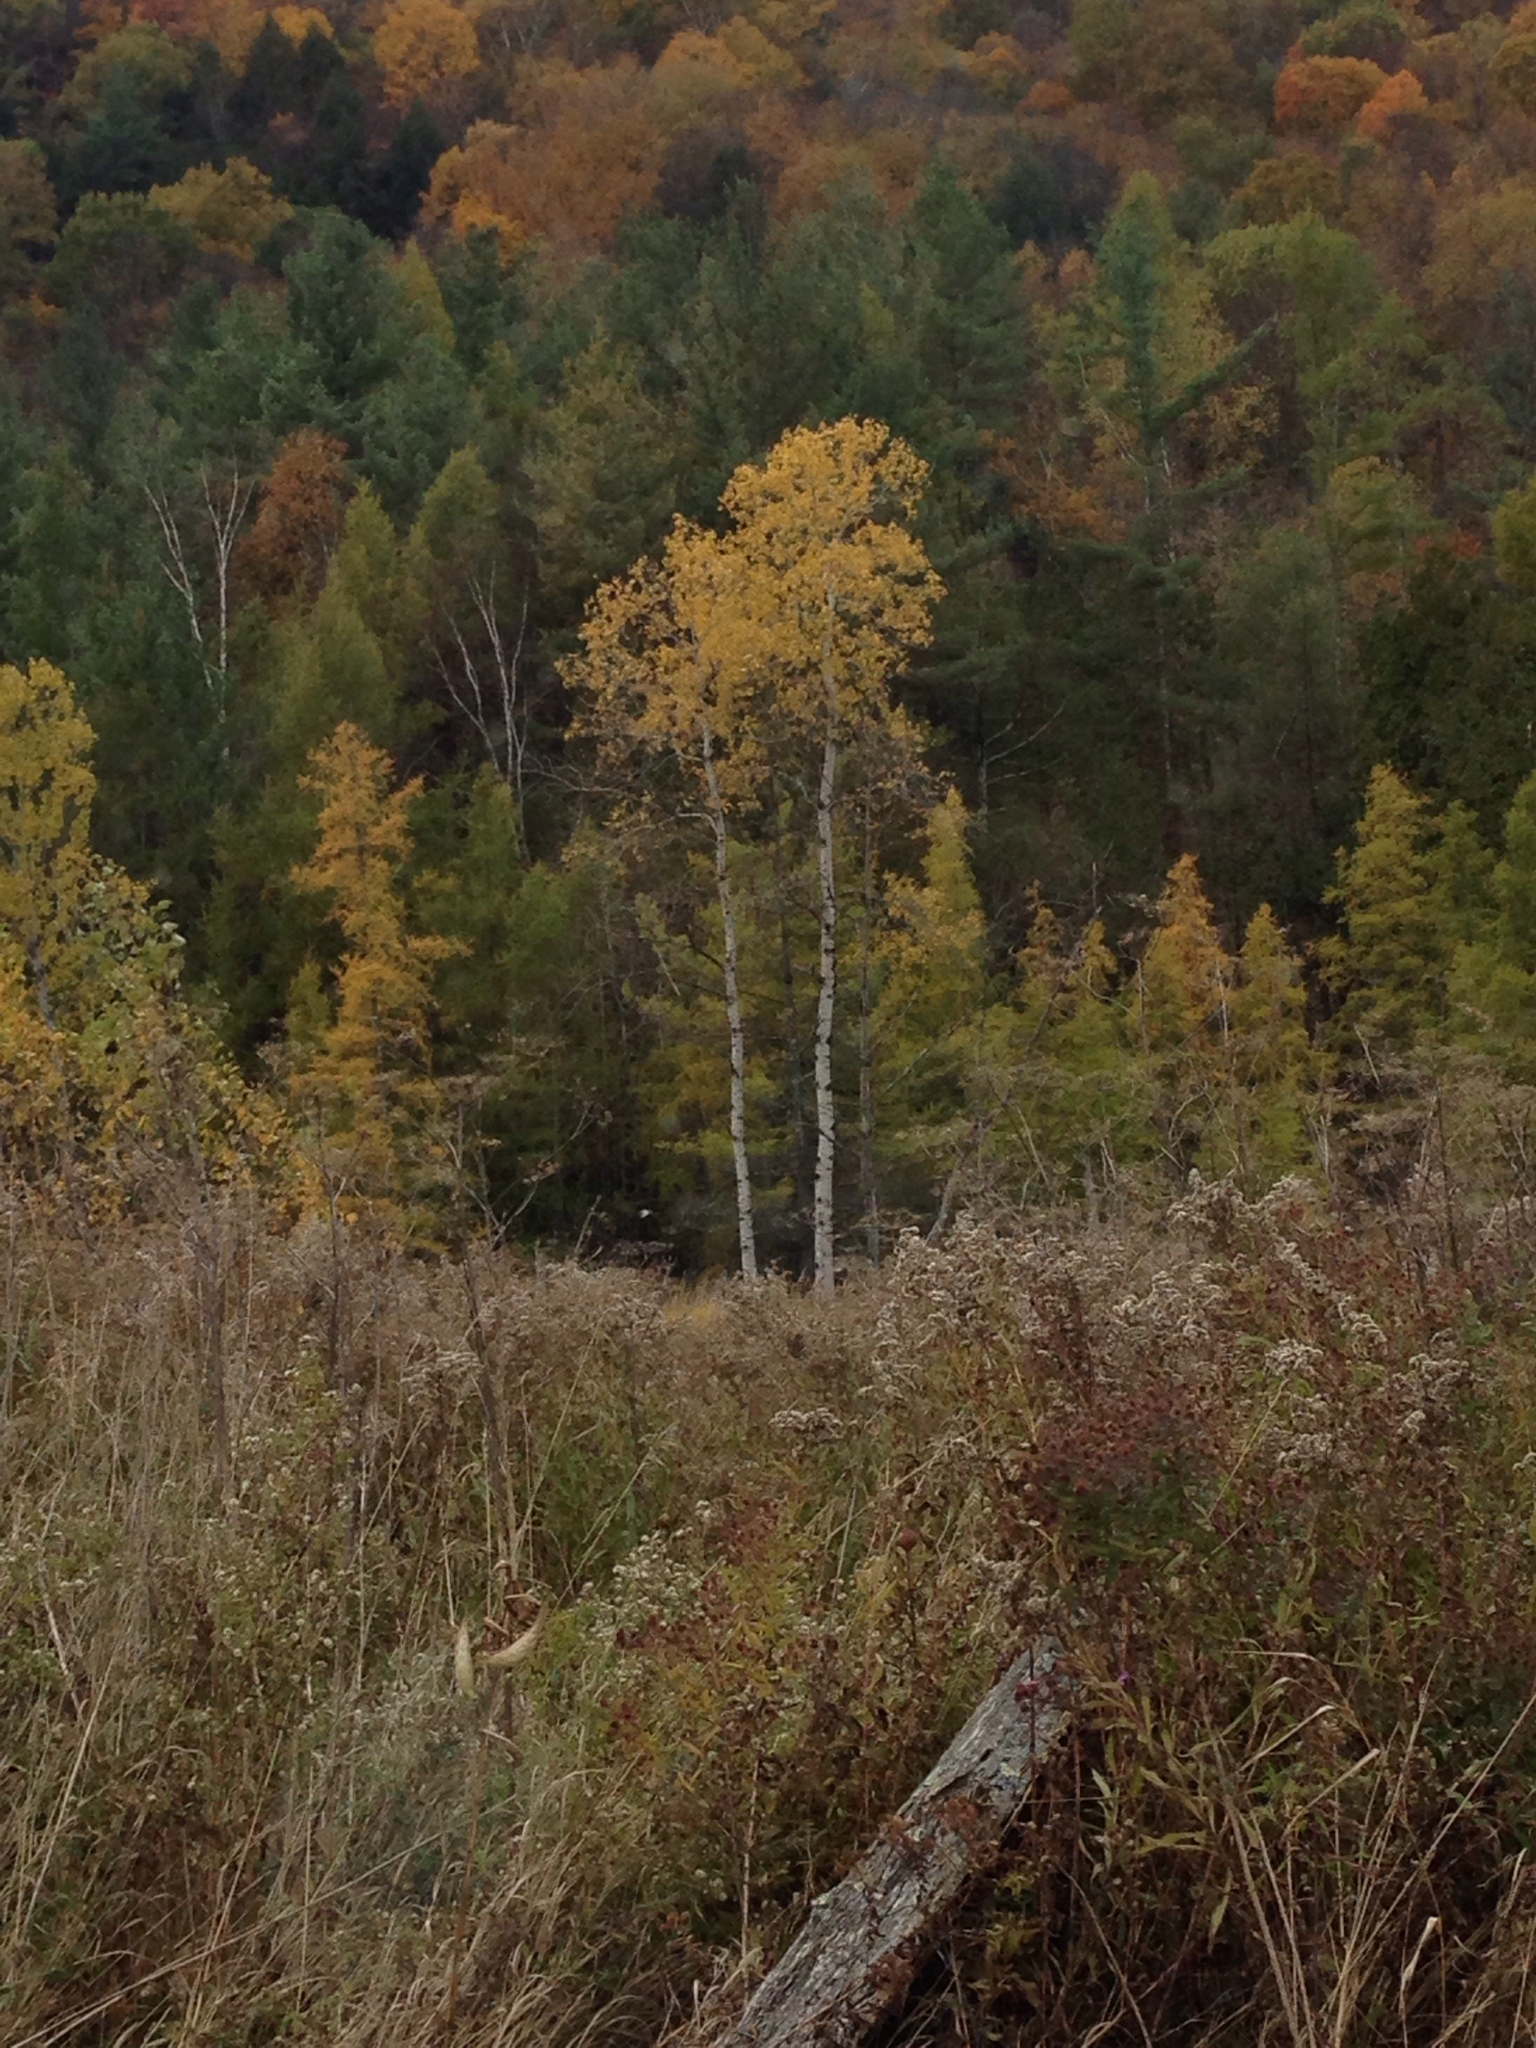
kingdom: Plantae
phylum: Tracheophyta
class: Magnoliopsida
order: Malpighiales
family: Salicaceae
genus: Populus
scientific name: Populus tremuloides
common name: Quaking aspen
